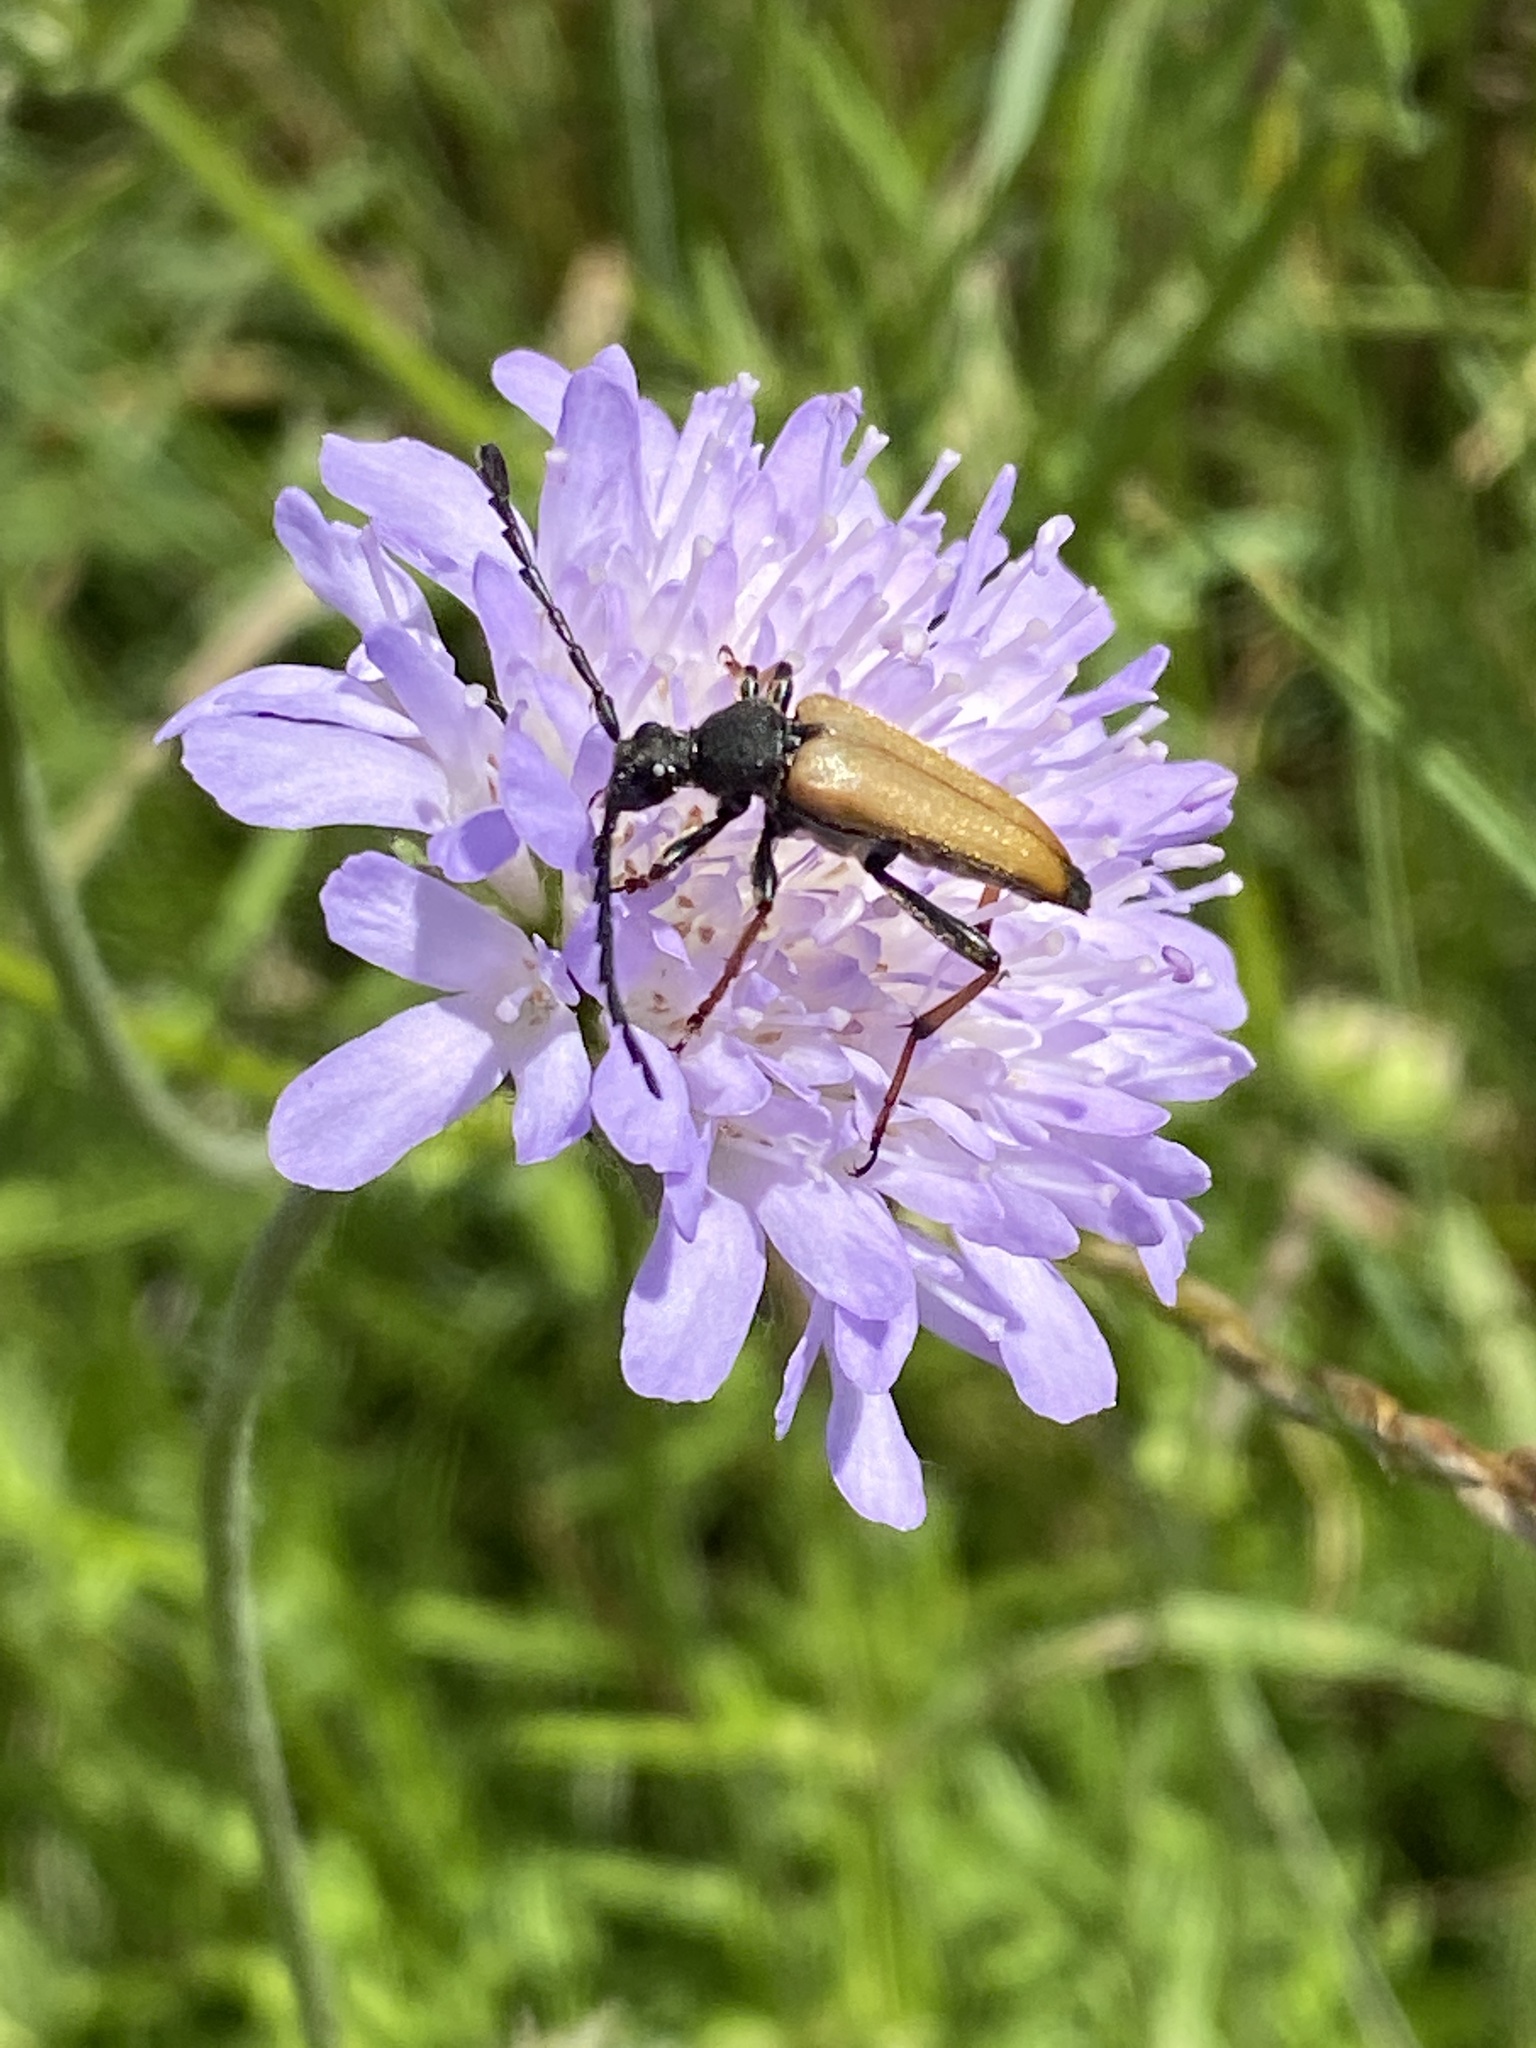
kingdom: Animalia
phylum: Arthropoda
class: Insecta
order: Coleoptera
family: Cerambycidae
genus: Stictoleptura
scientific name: Stictoleptura rubra
